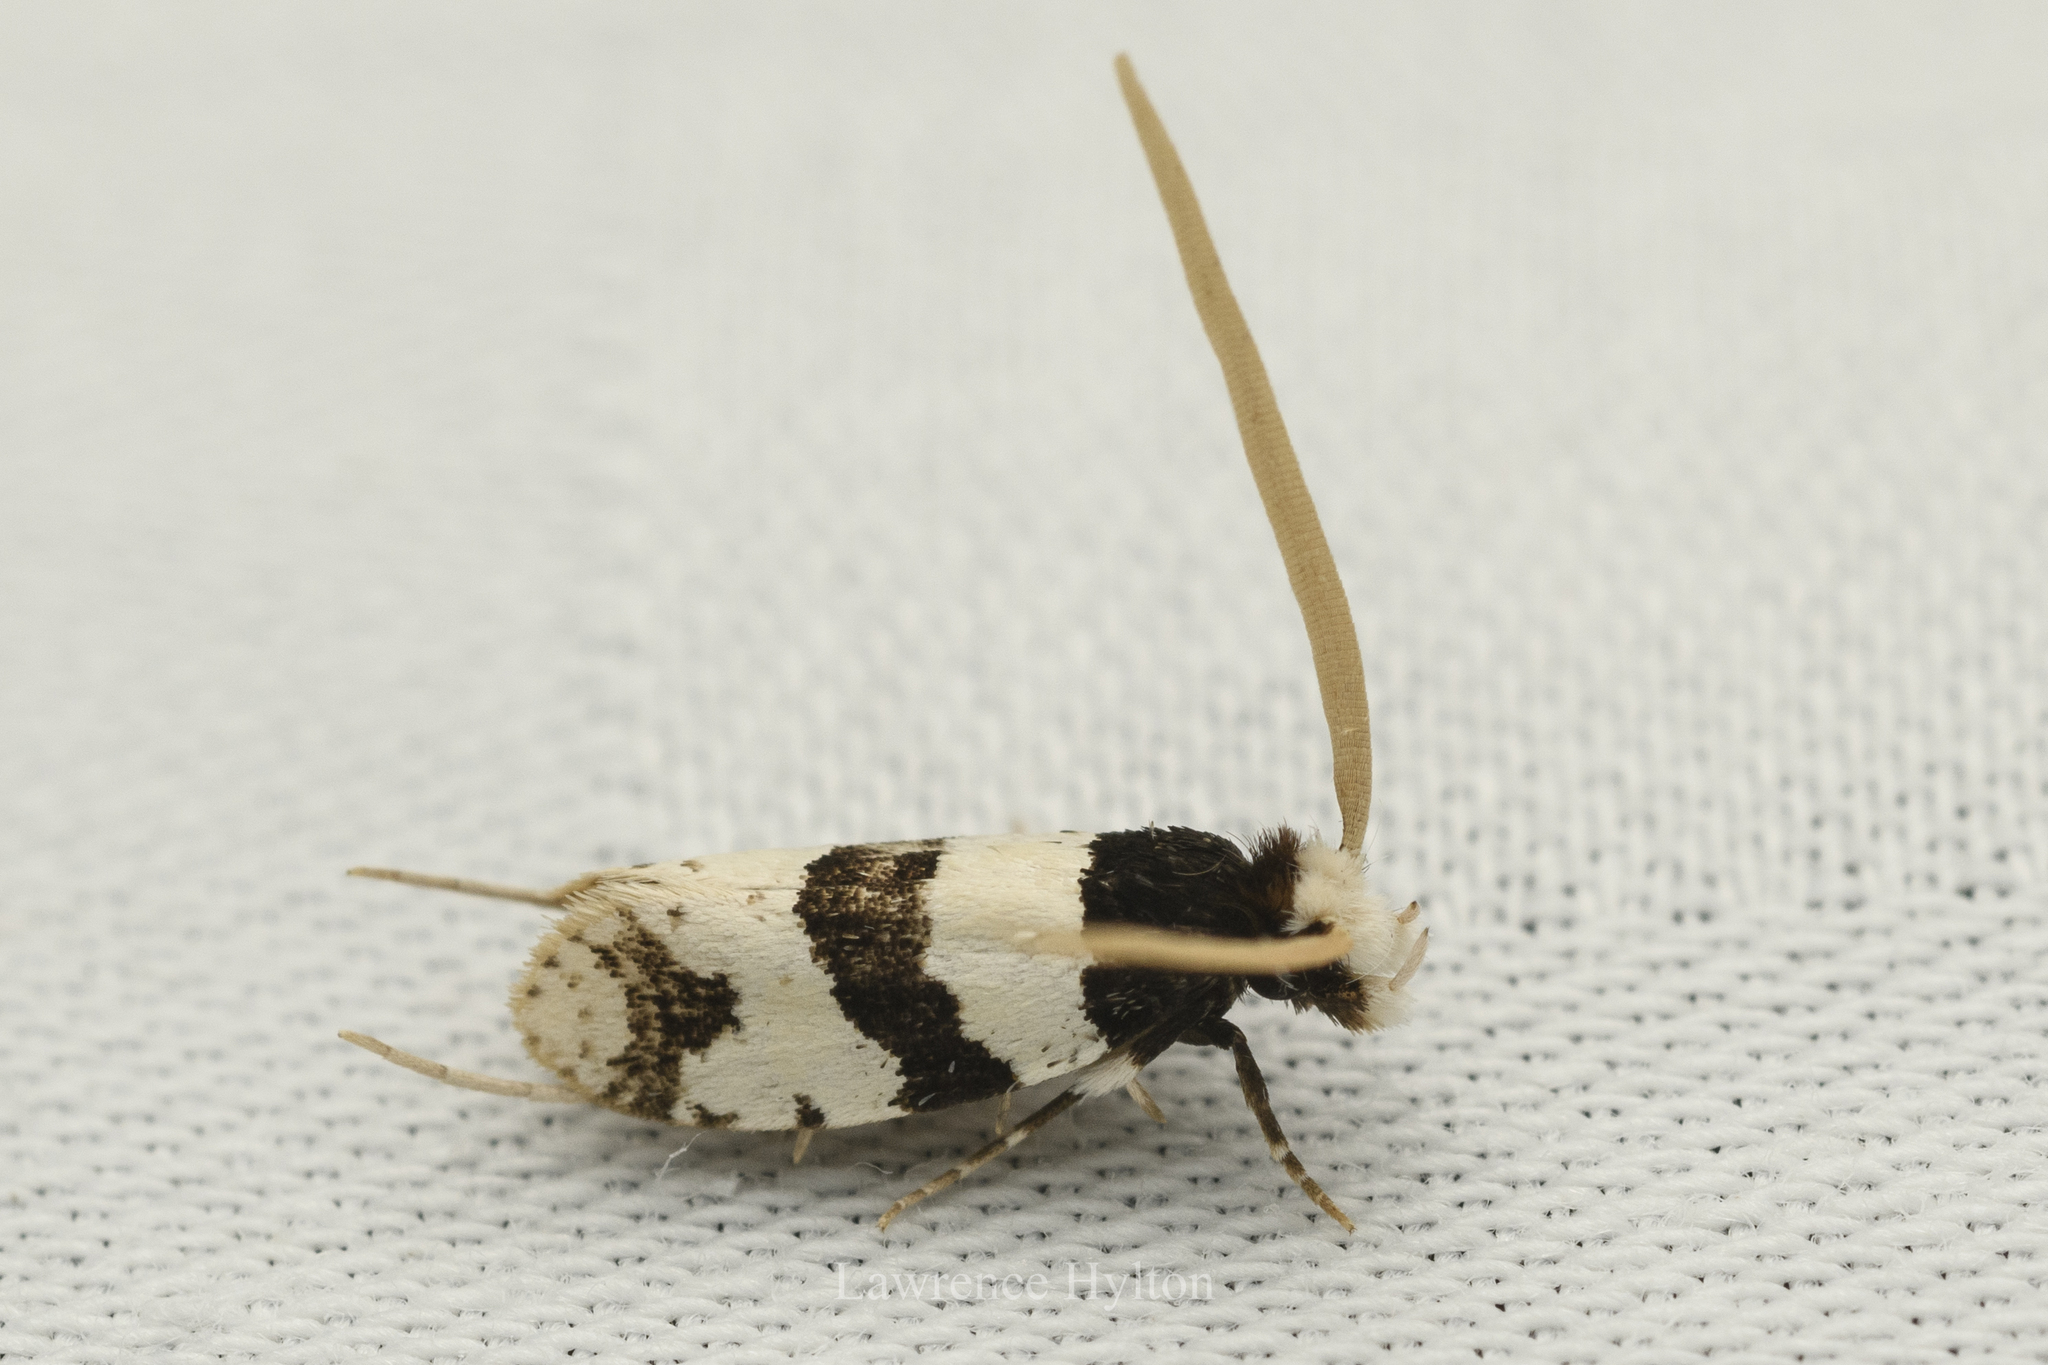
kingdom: Animalia
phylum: Arthropoda
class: Insecta
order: Lepidoptera
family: Tineidae
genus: Thisizima
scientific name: Thisizima fasciaria
